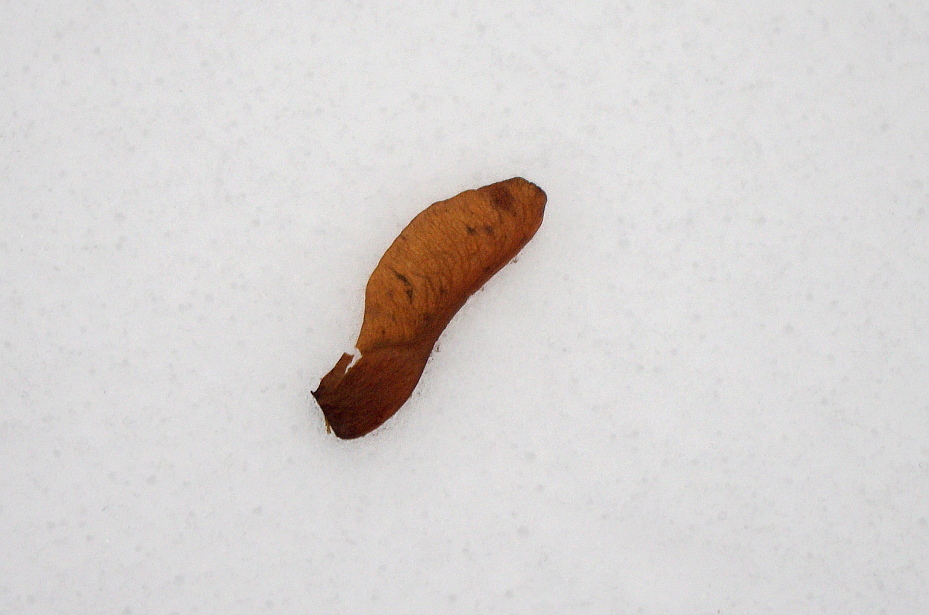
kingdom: Plantae
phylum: Tracheophyta
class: Magnoliopsida
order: Sapindales
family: Sapindaceae
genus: Acer
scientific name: Acer platanoides
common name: Norway maple
